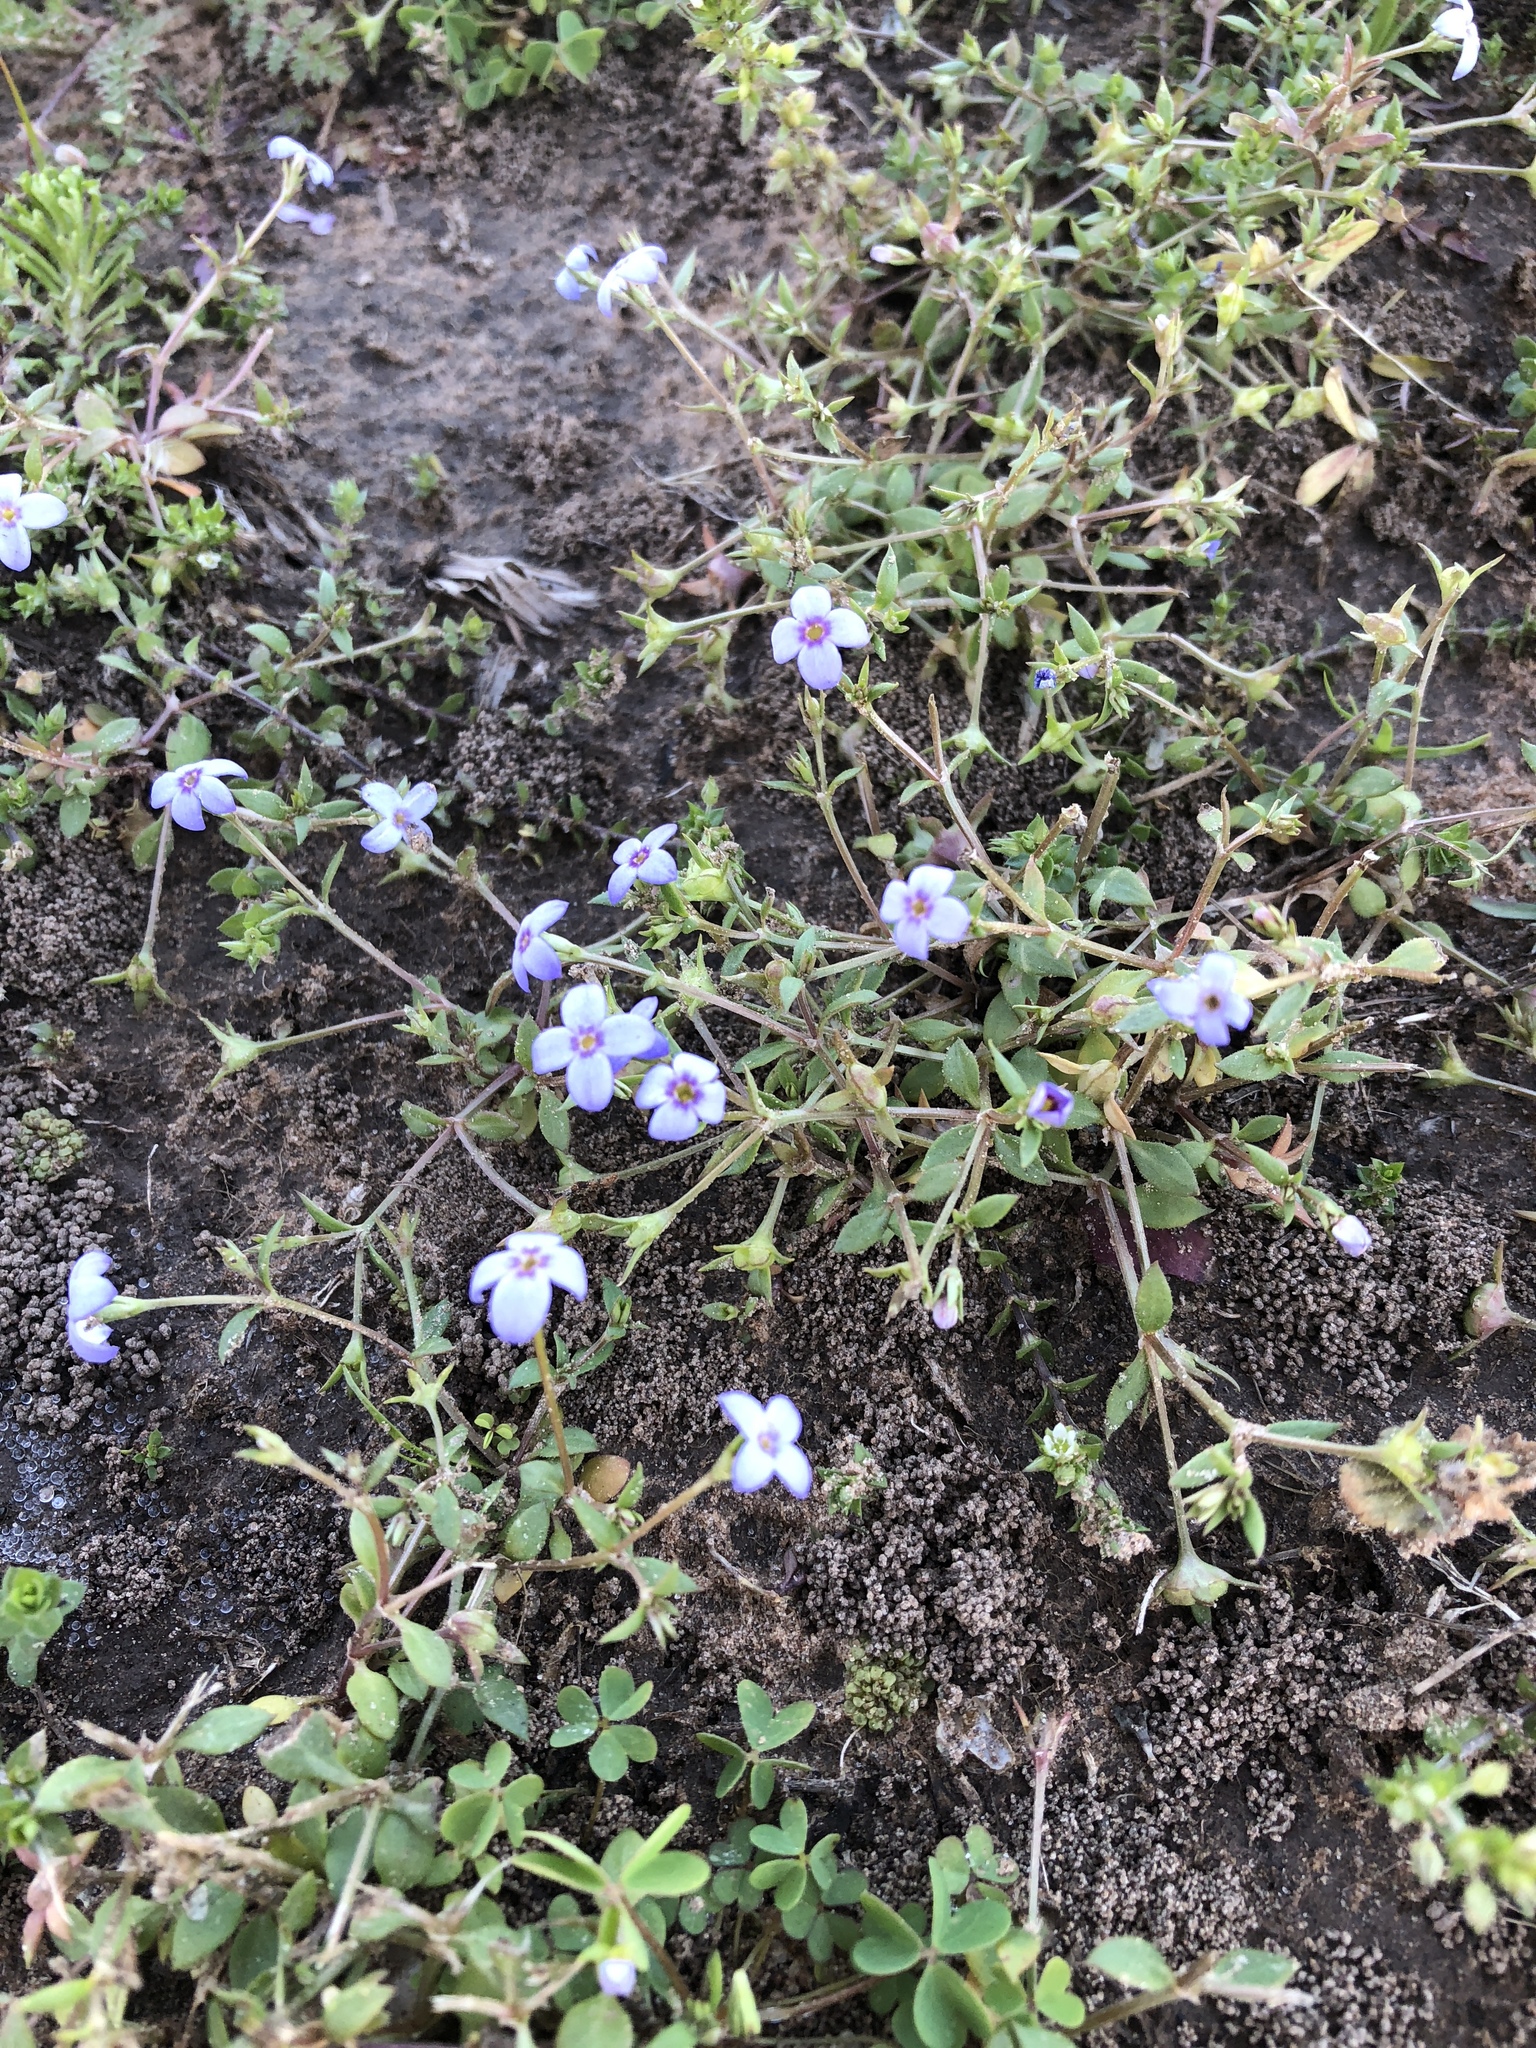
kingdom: Plantae
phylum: Tracheophyta
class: Magnoliopsida
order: Gentianales
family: Rubiaceae
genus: Houstonia
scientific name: Houstonia pusilla
